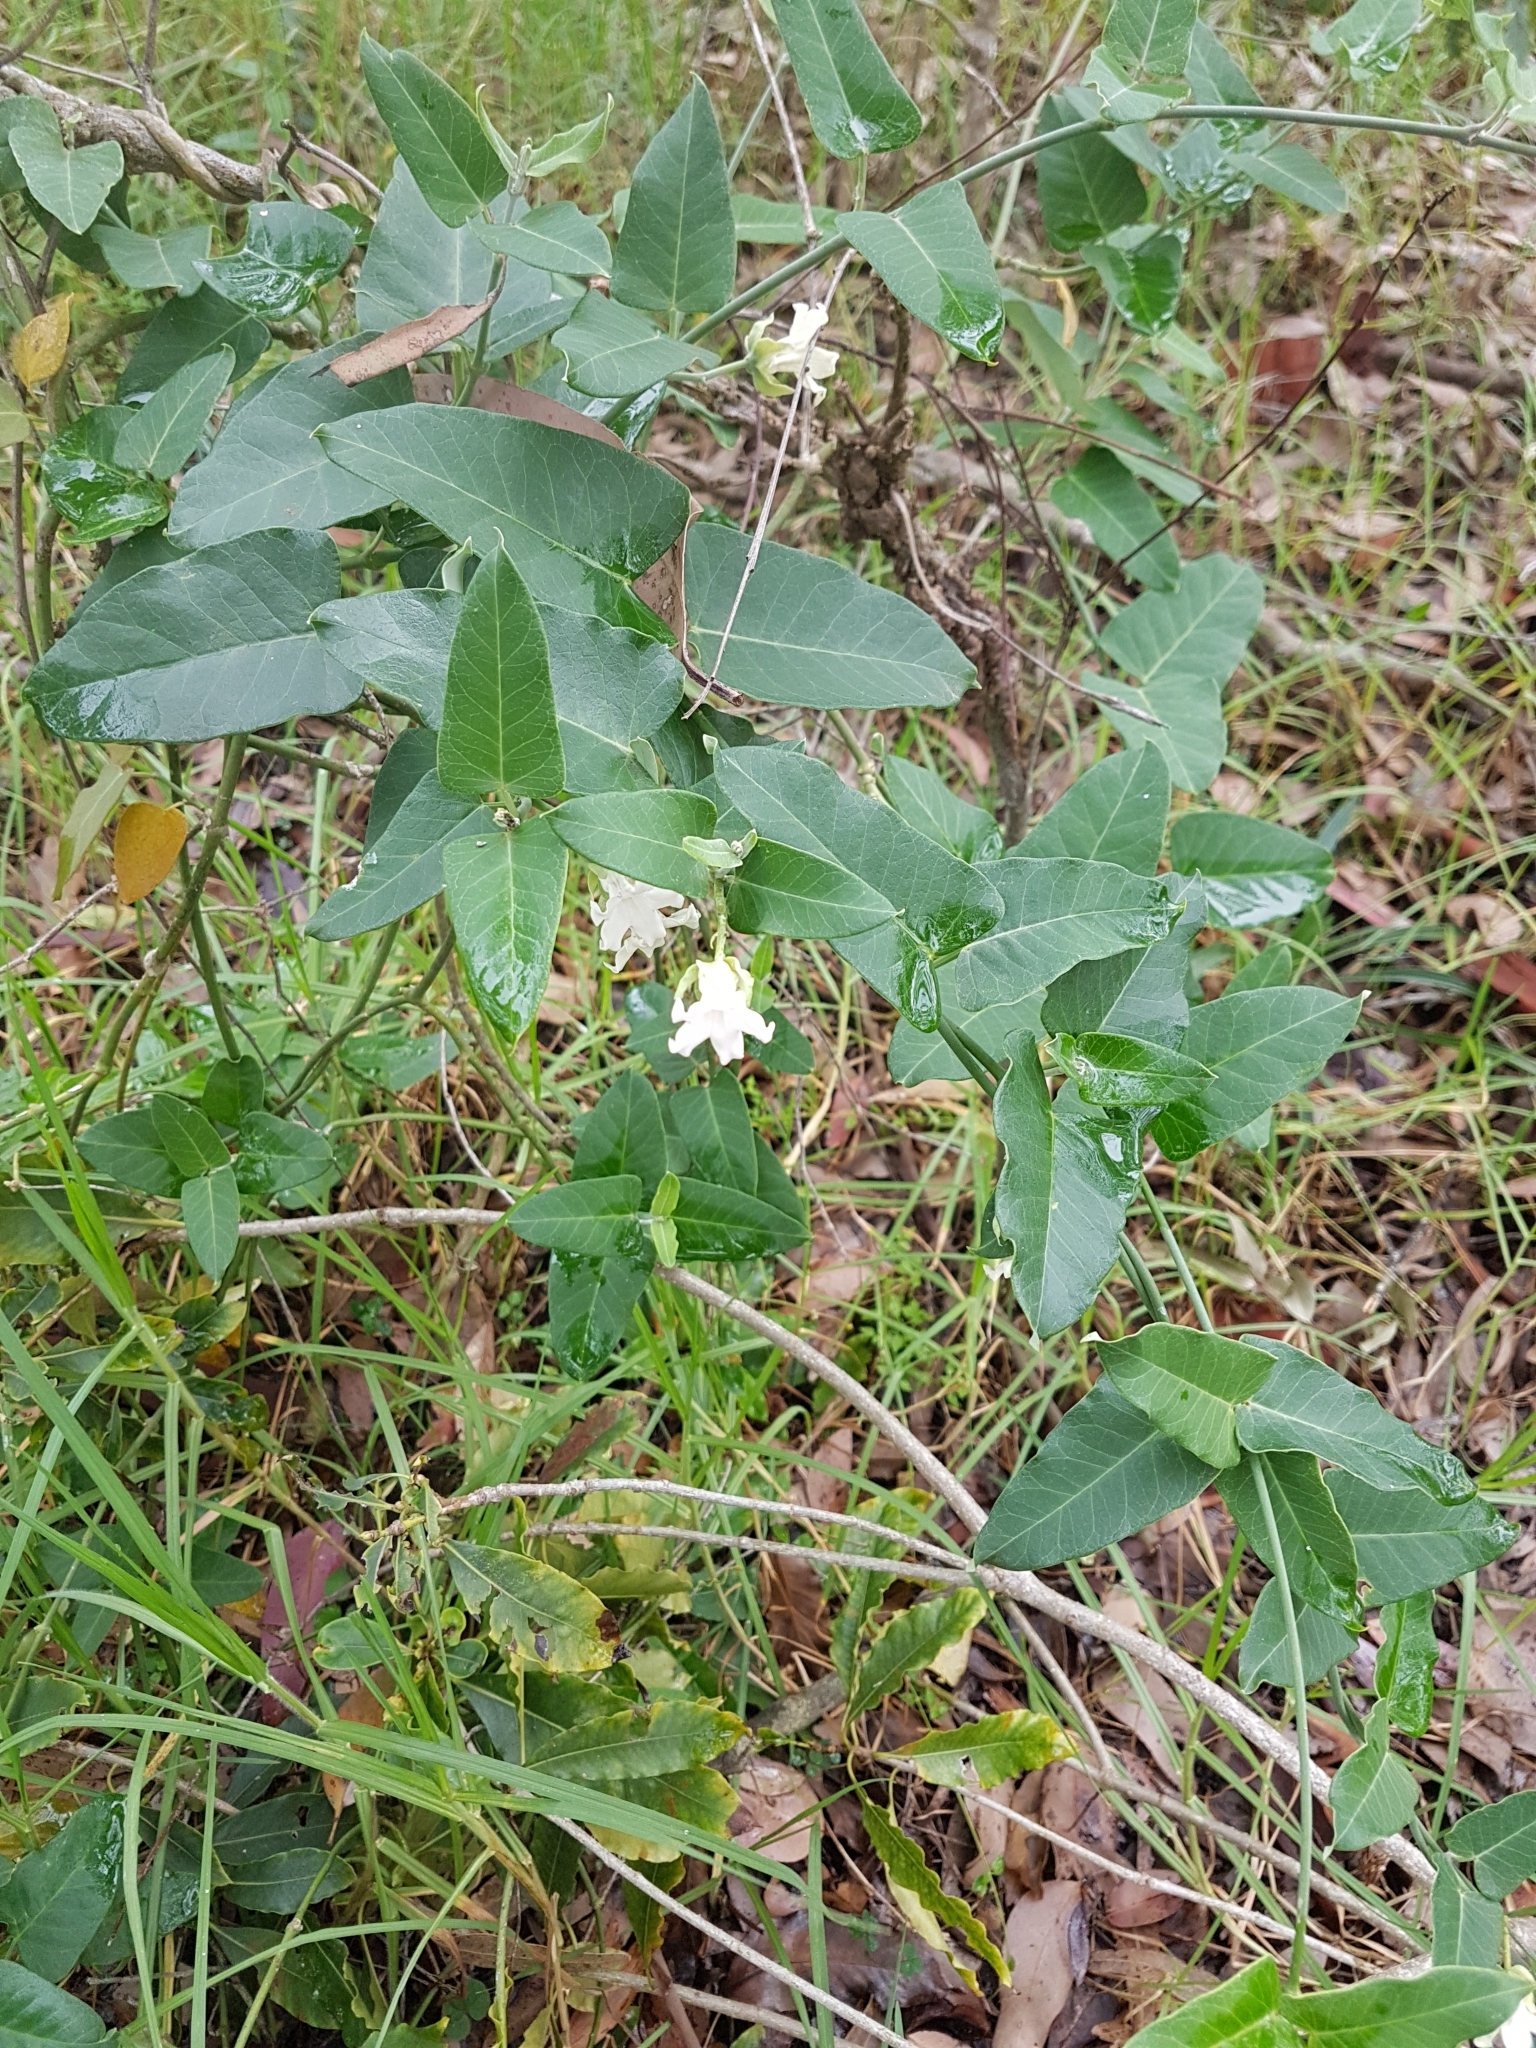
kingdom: Plantae
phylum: Tracheophyta
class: Magnoliopsida
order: Gentianales
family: Apocynaceae
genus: Araujia
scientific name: Araujia sericifera
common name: White bladderflower
